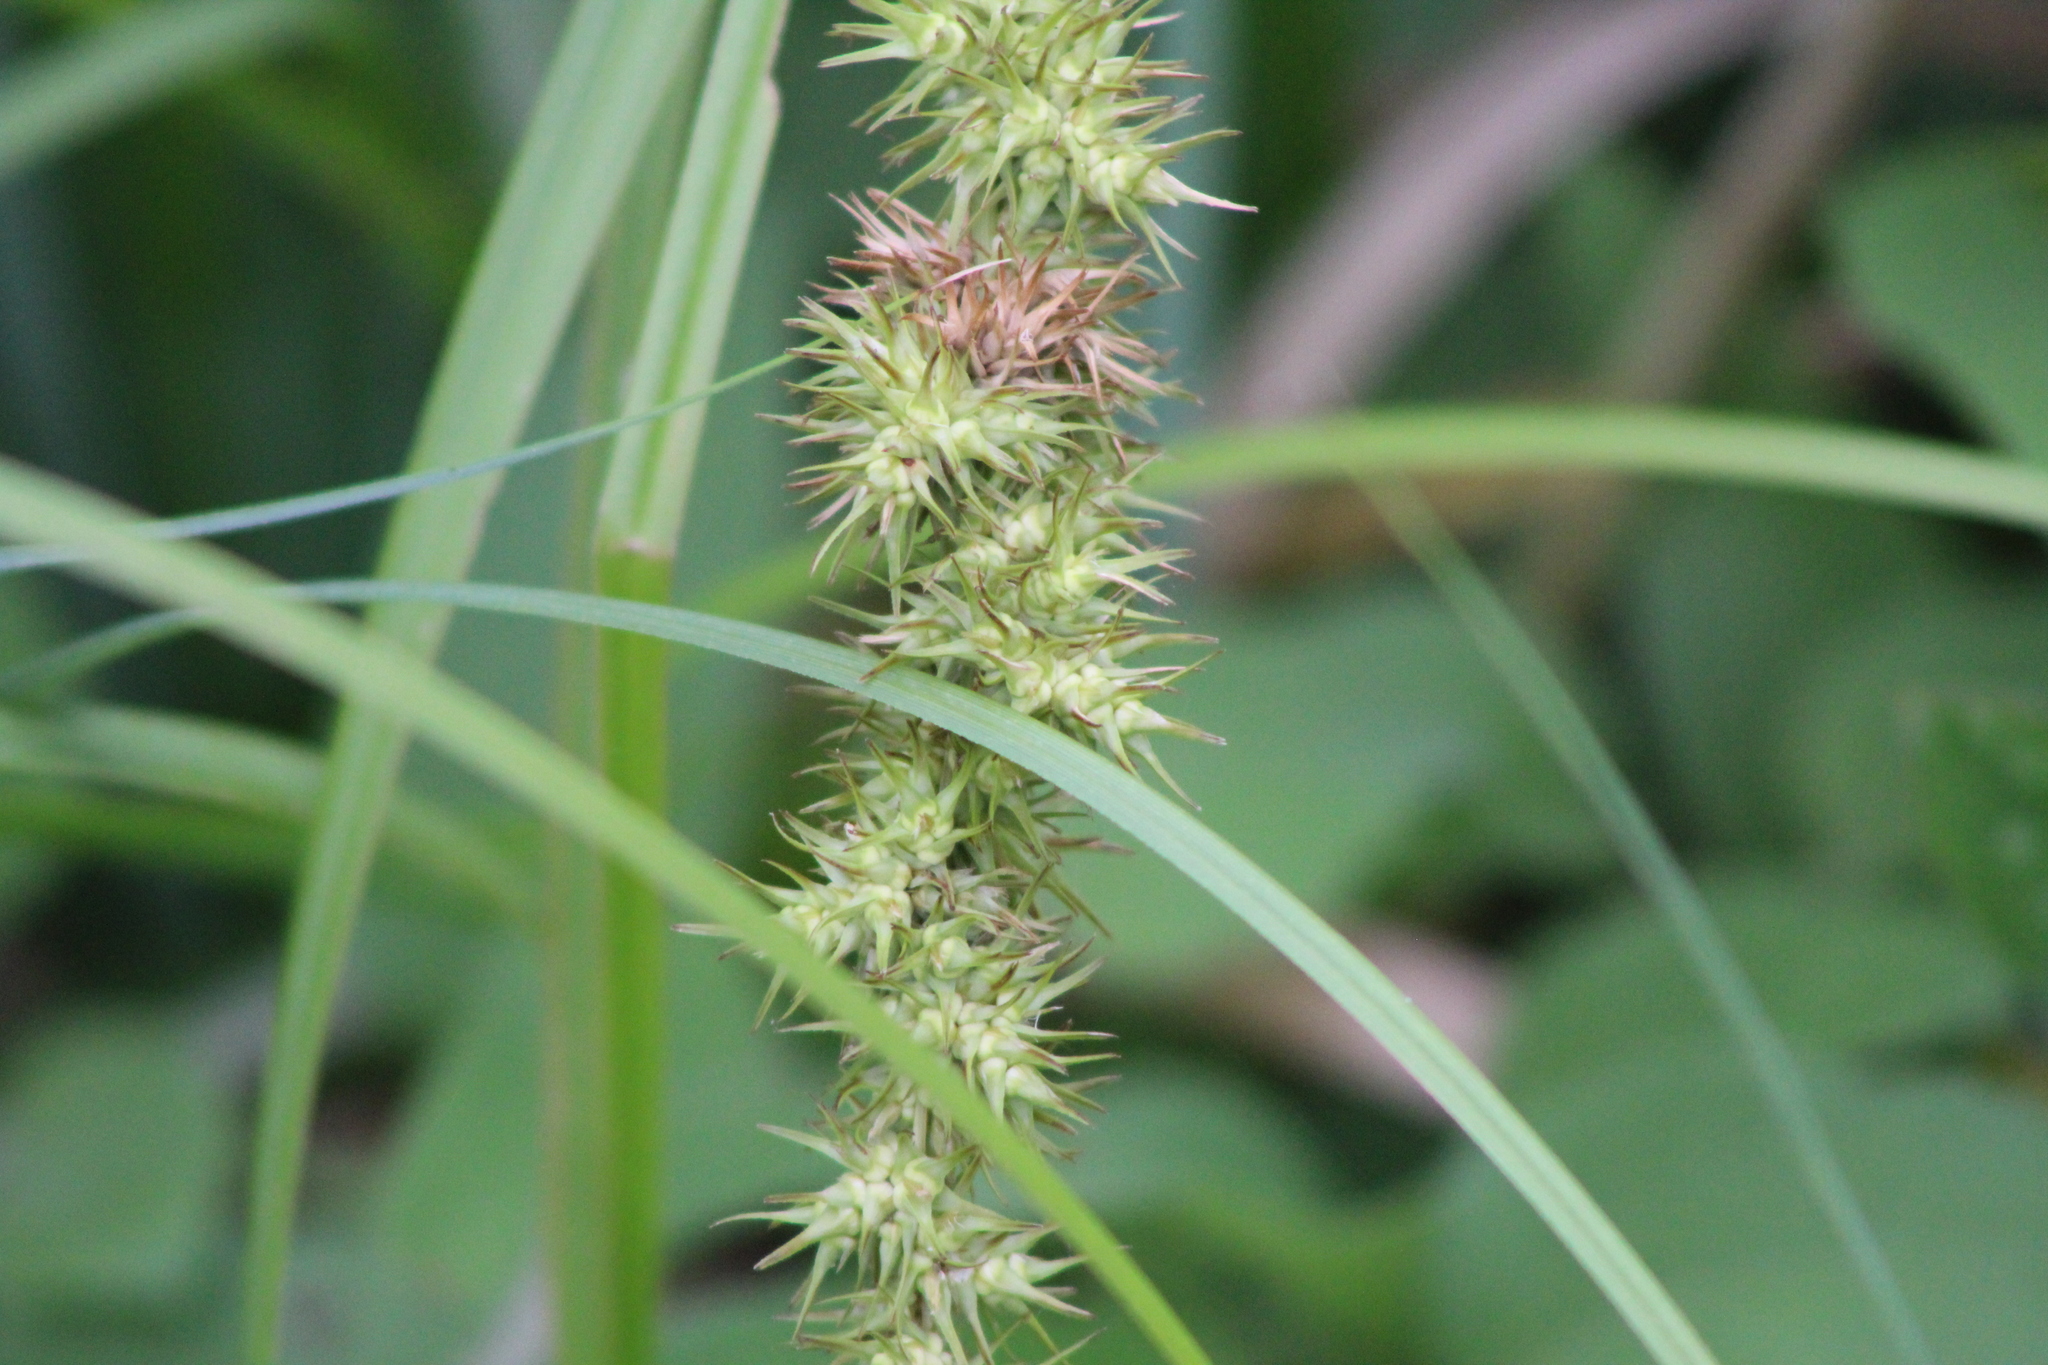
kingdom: Plantae
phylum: Tracheophyta
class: Liliopsida
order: Poales
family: Cyperaceae
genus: Carex
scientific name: Carex crus-corvi
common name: Crow-spur sedge
